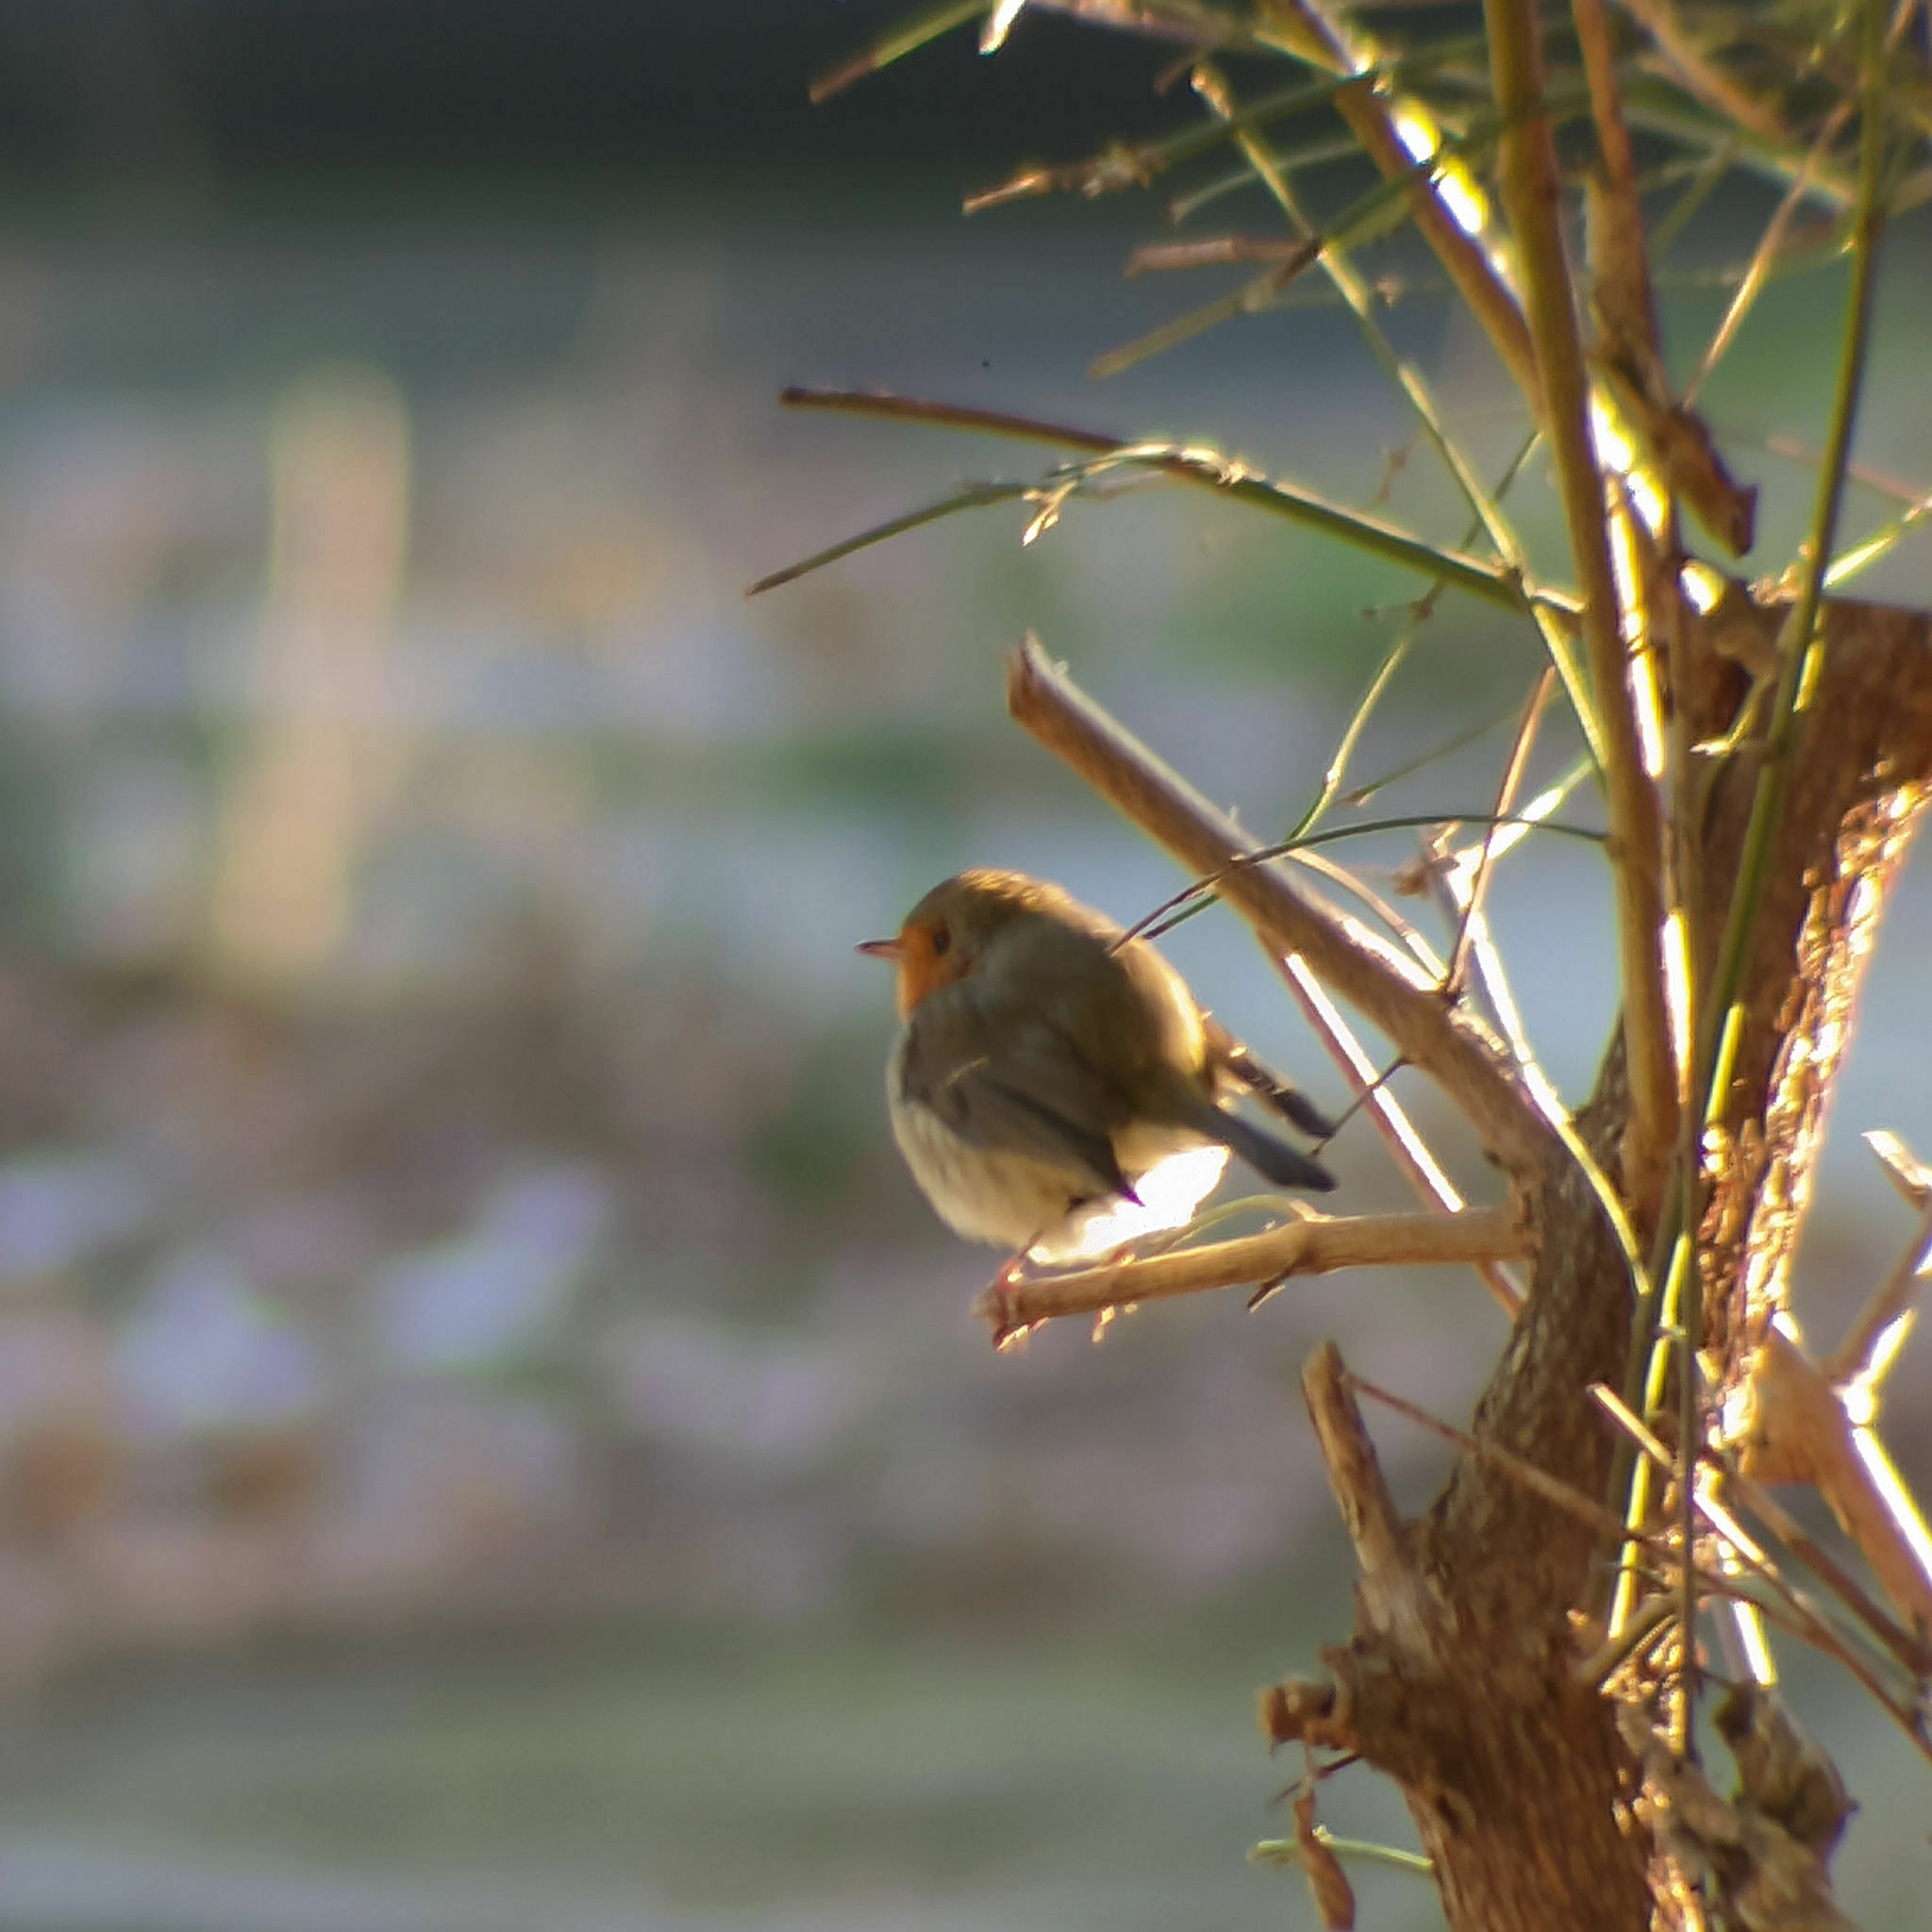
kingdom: Animalia
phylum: Chordata
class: Aves
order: Passeriformes
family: Muscicapidae
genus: Erithacus
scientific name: Erithacus rubecula
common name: European robin
